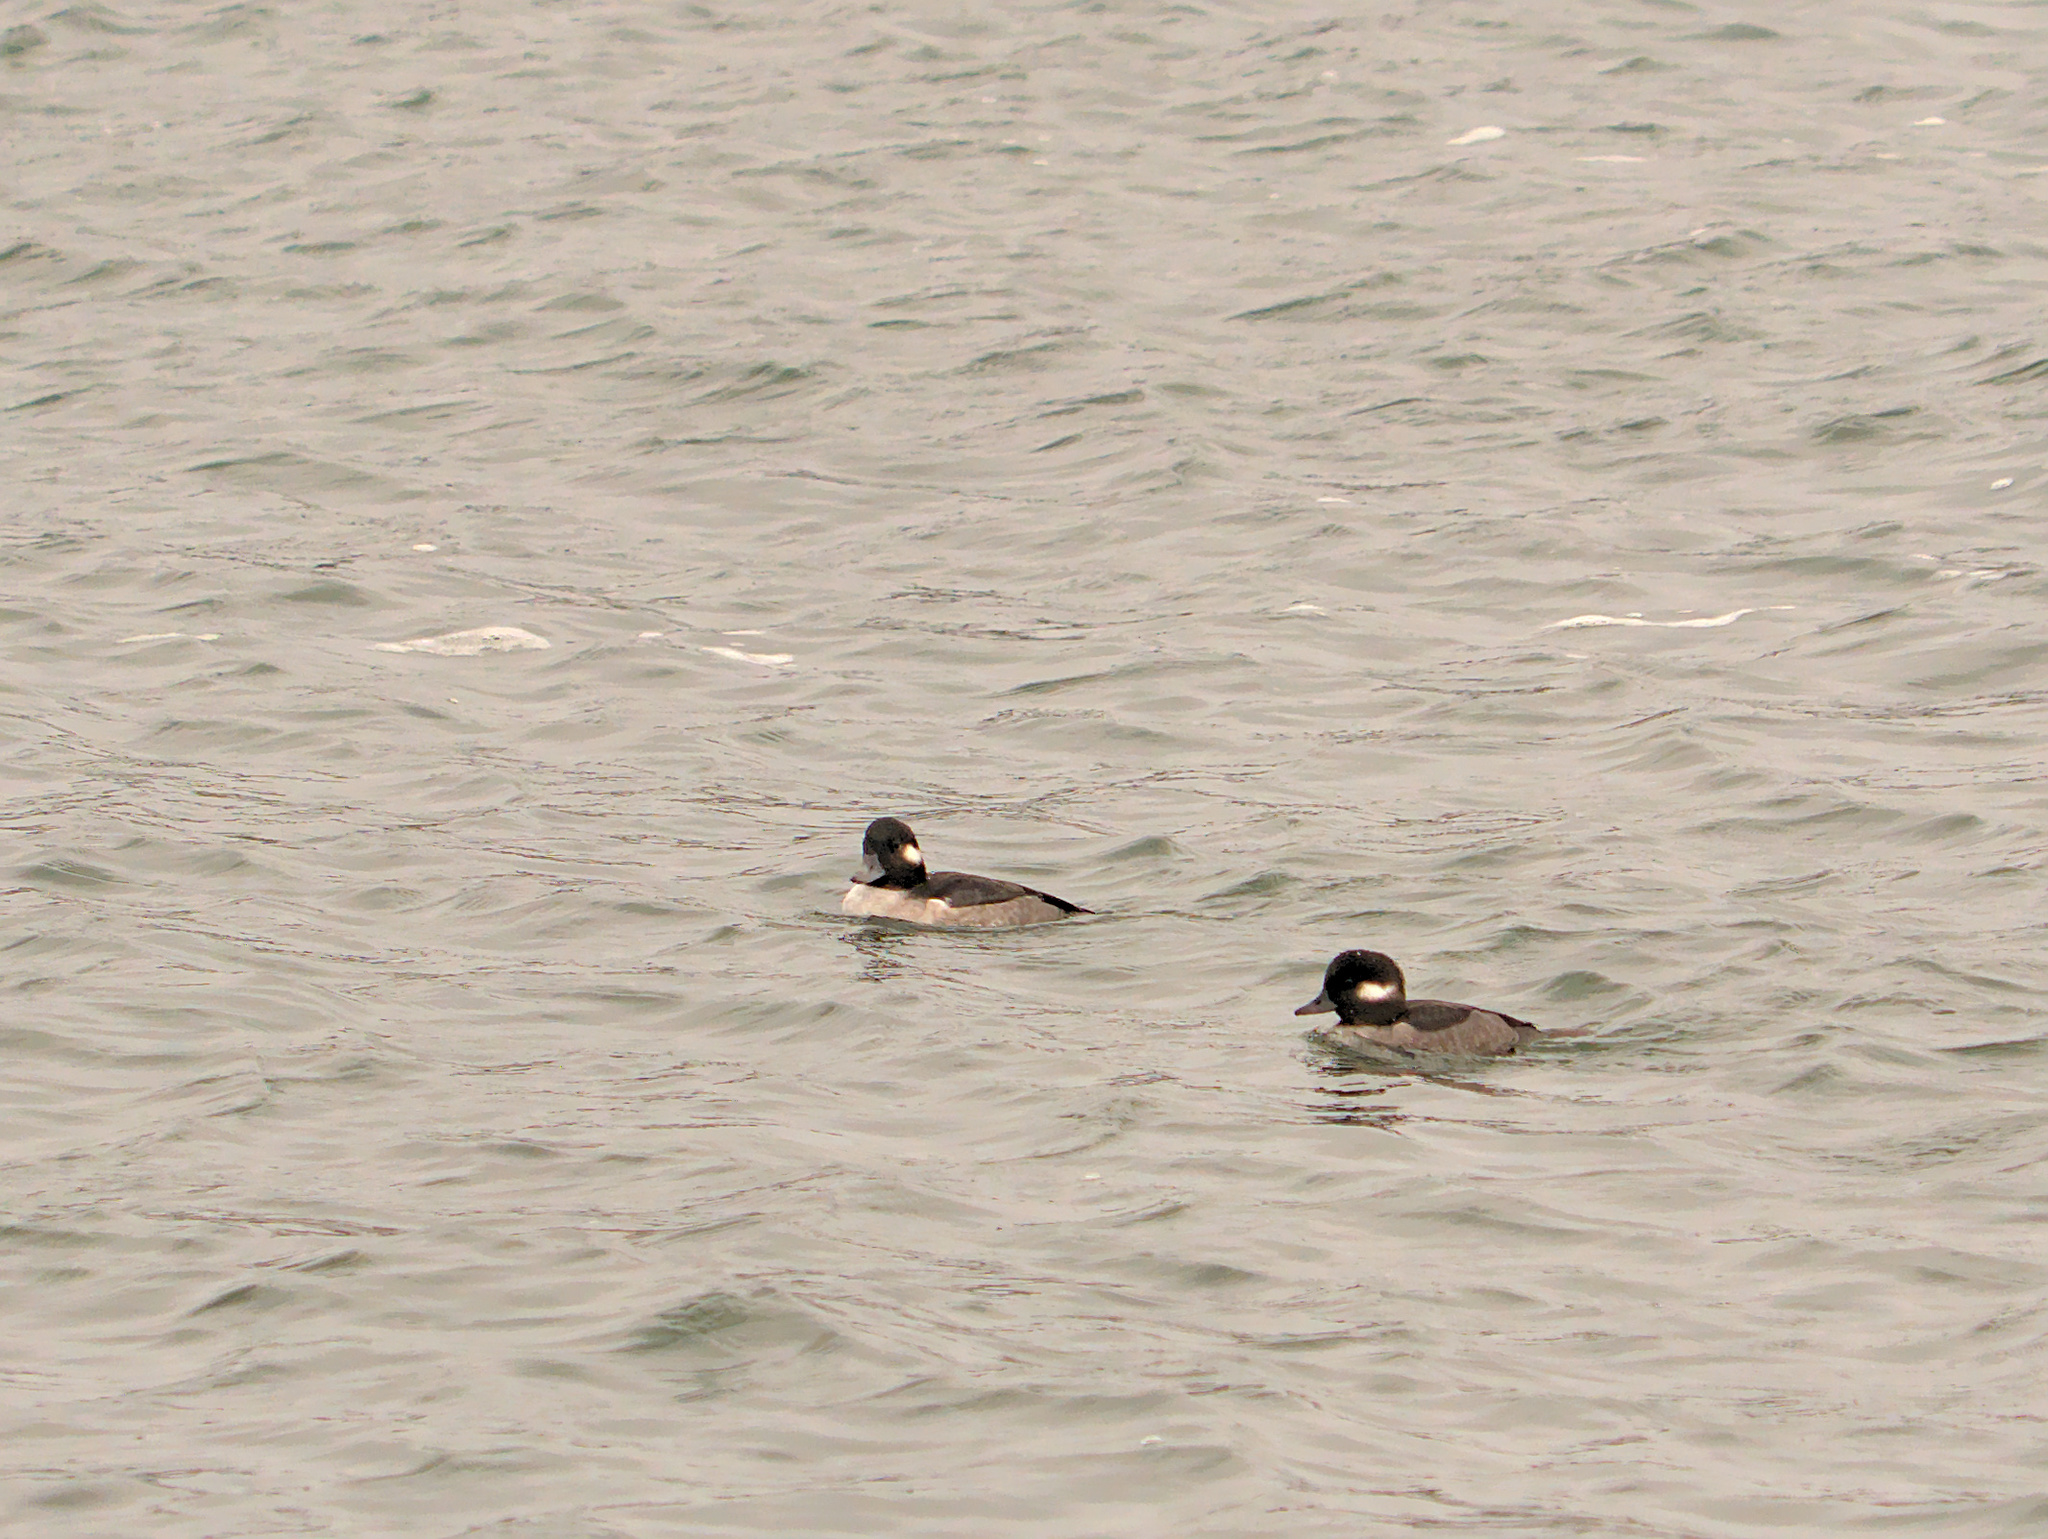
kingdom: Animalia
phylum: Chordata
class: Aves
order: Anseriformes
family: Anatidae
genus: Bucephala
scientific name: Bucephala albeola
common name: Bufflehead
